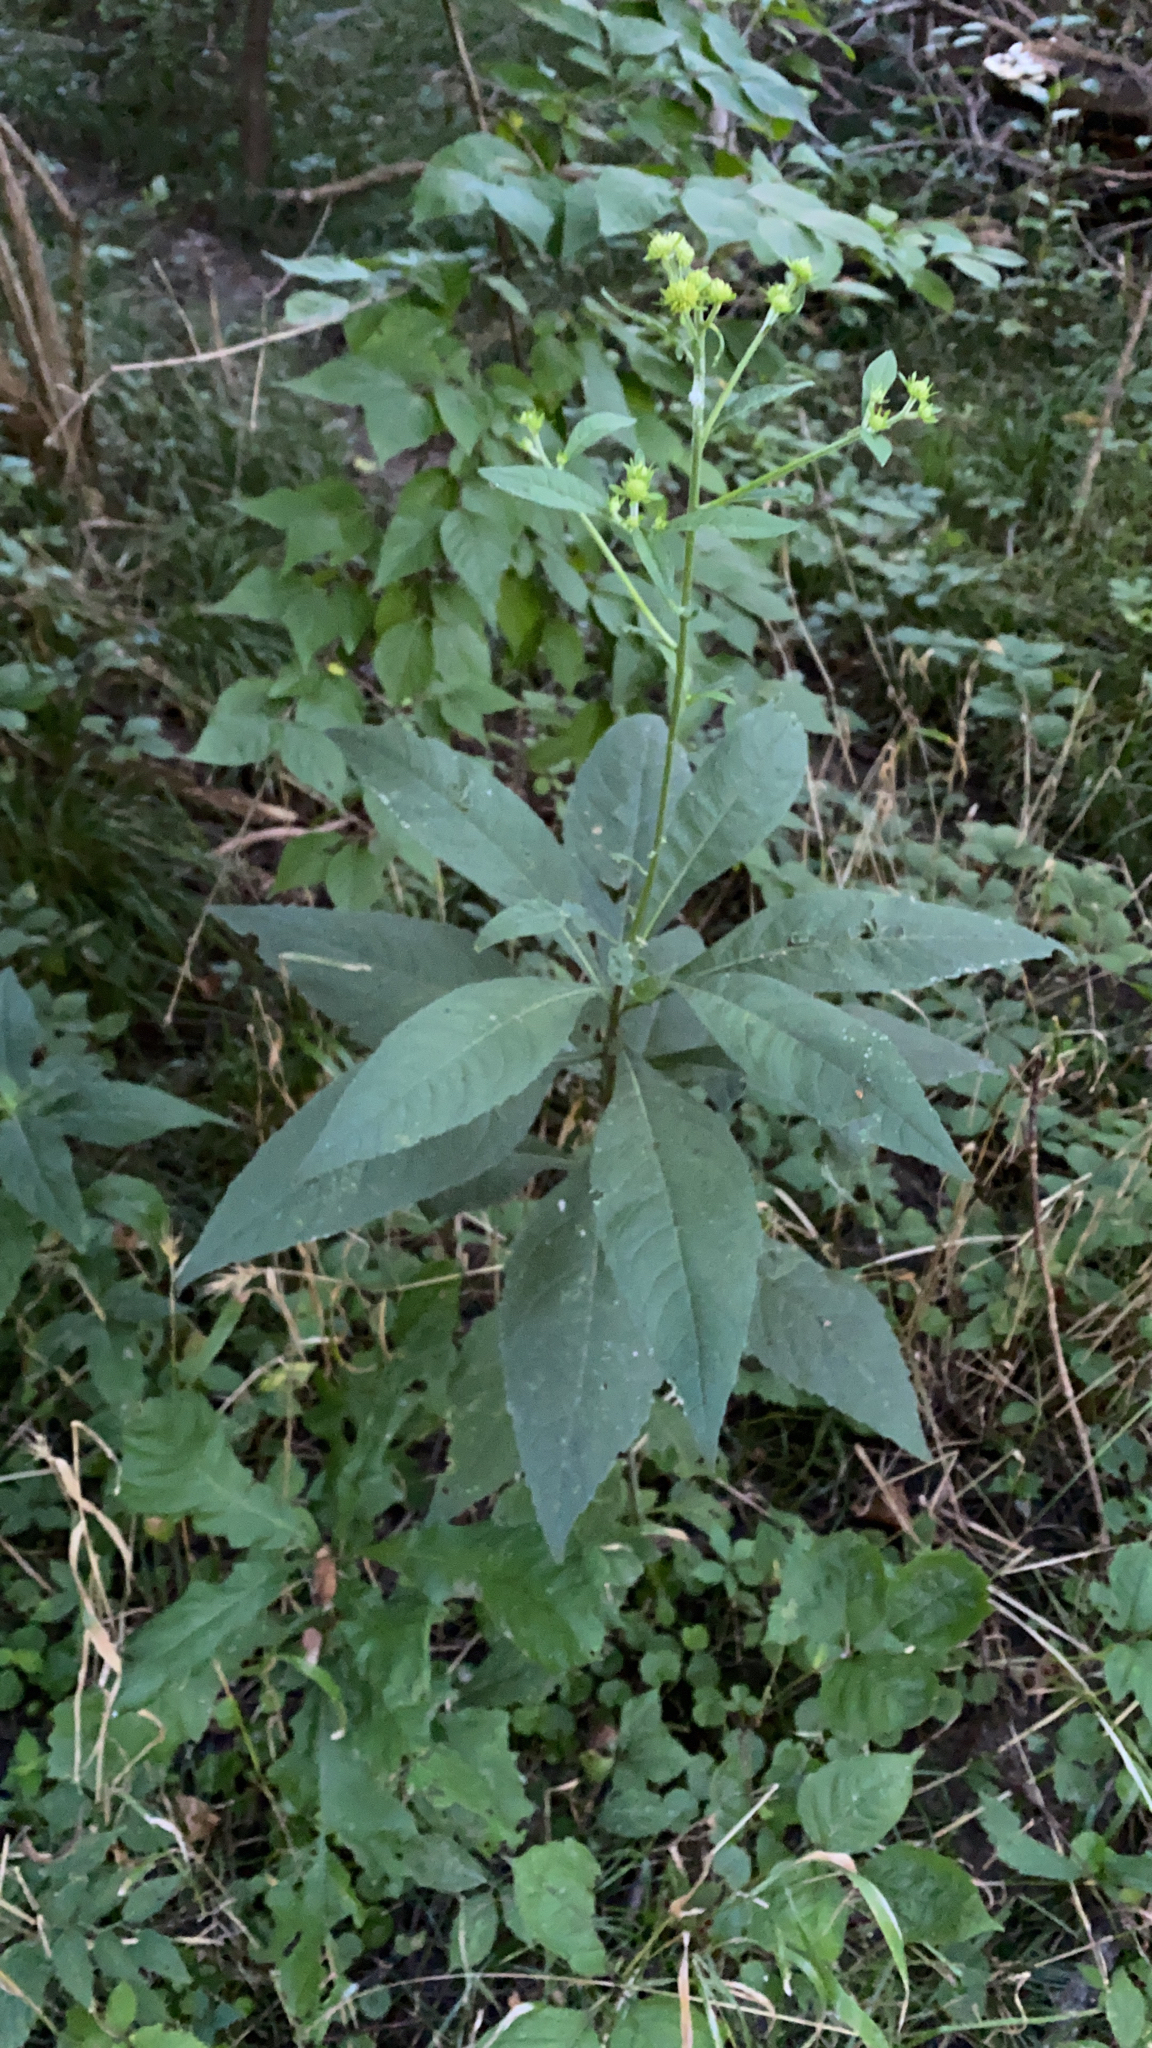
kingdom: Plantae
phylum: Tracheophyta
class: Magnoliopsida
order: Asterales
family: Asteraceae
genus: Verbesina
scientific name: Verbesina alternifolia
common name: Wingstem
